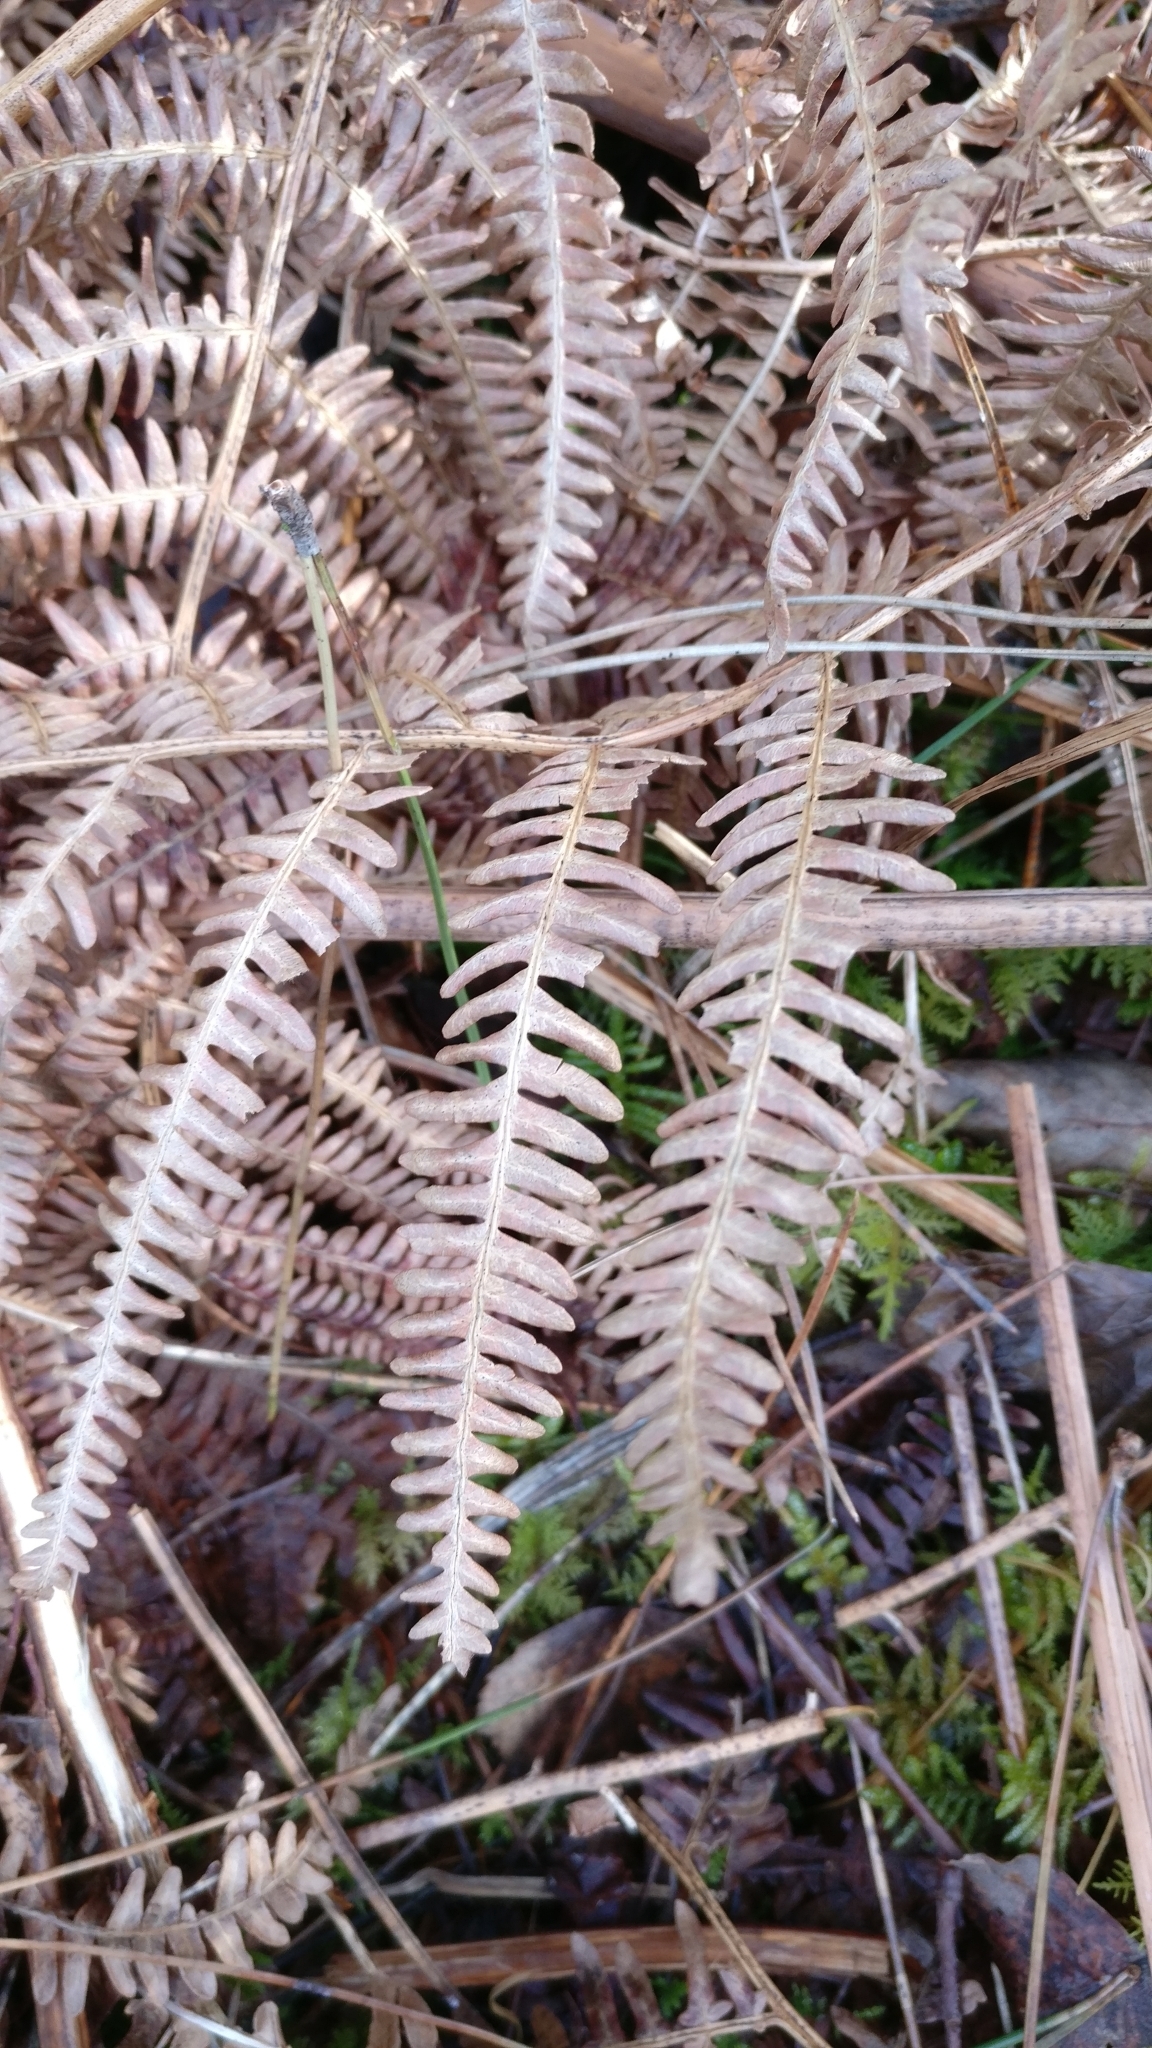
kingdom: Plantae
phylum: Tracheophyta
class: Polypodiopsida
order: Polypodiales
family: Dennstaedtiaceae
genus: Pteridium
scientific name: Pteridium aquilinum
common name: Bracken
